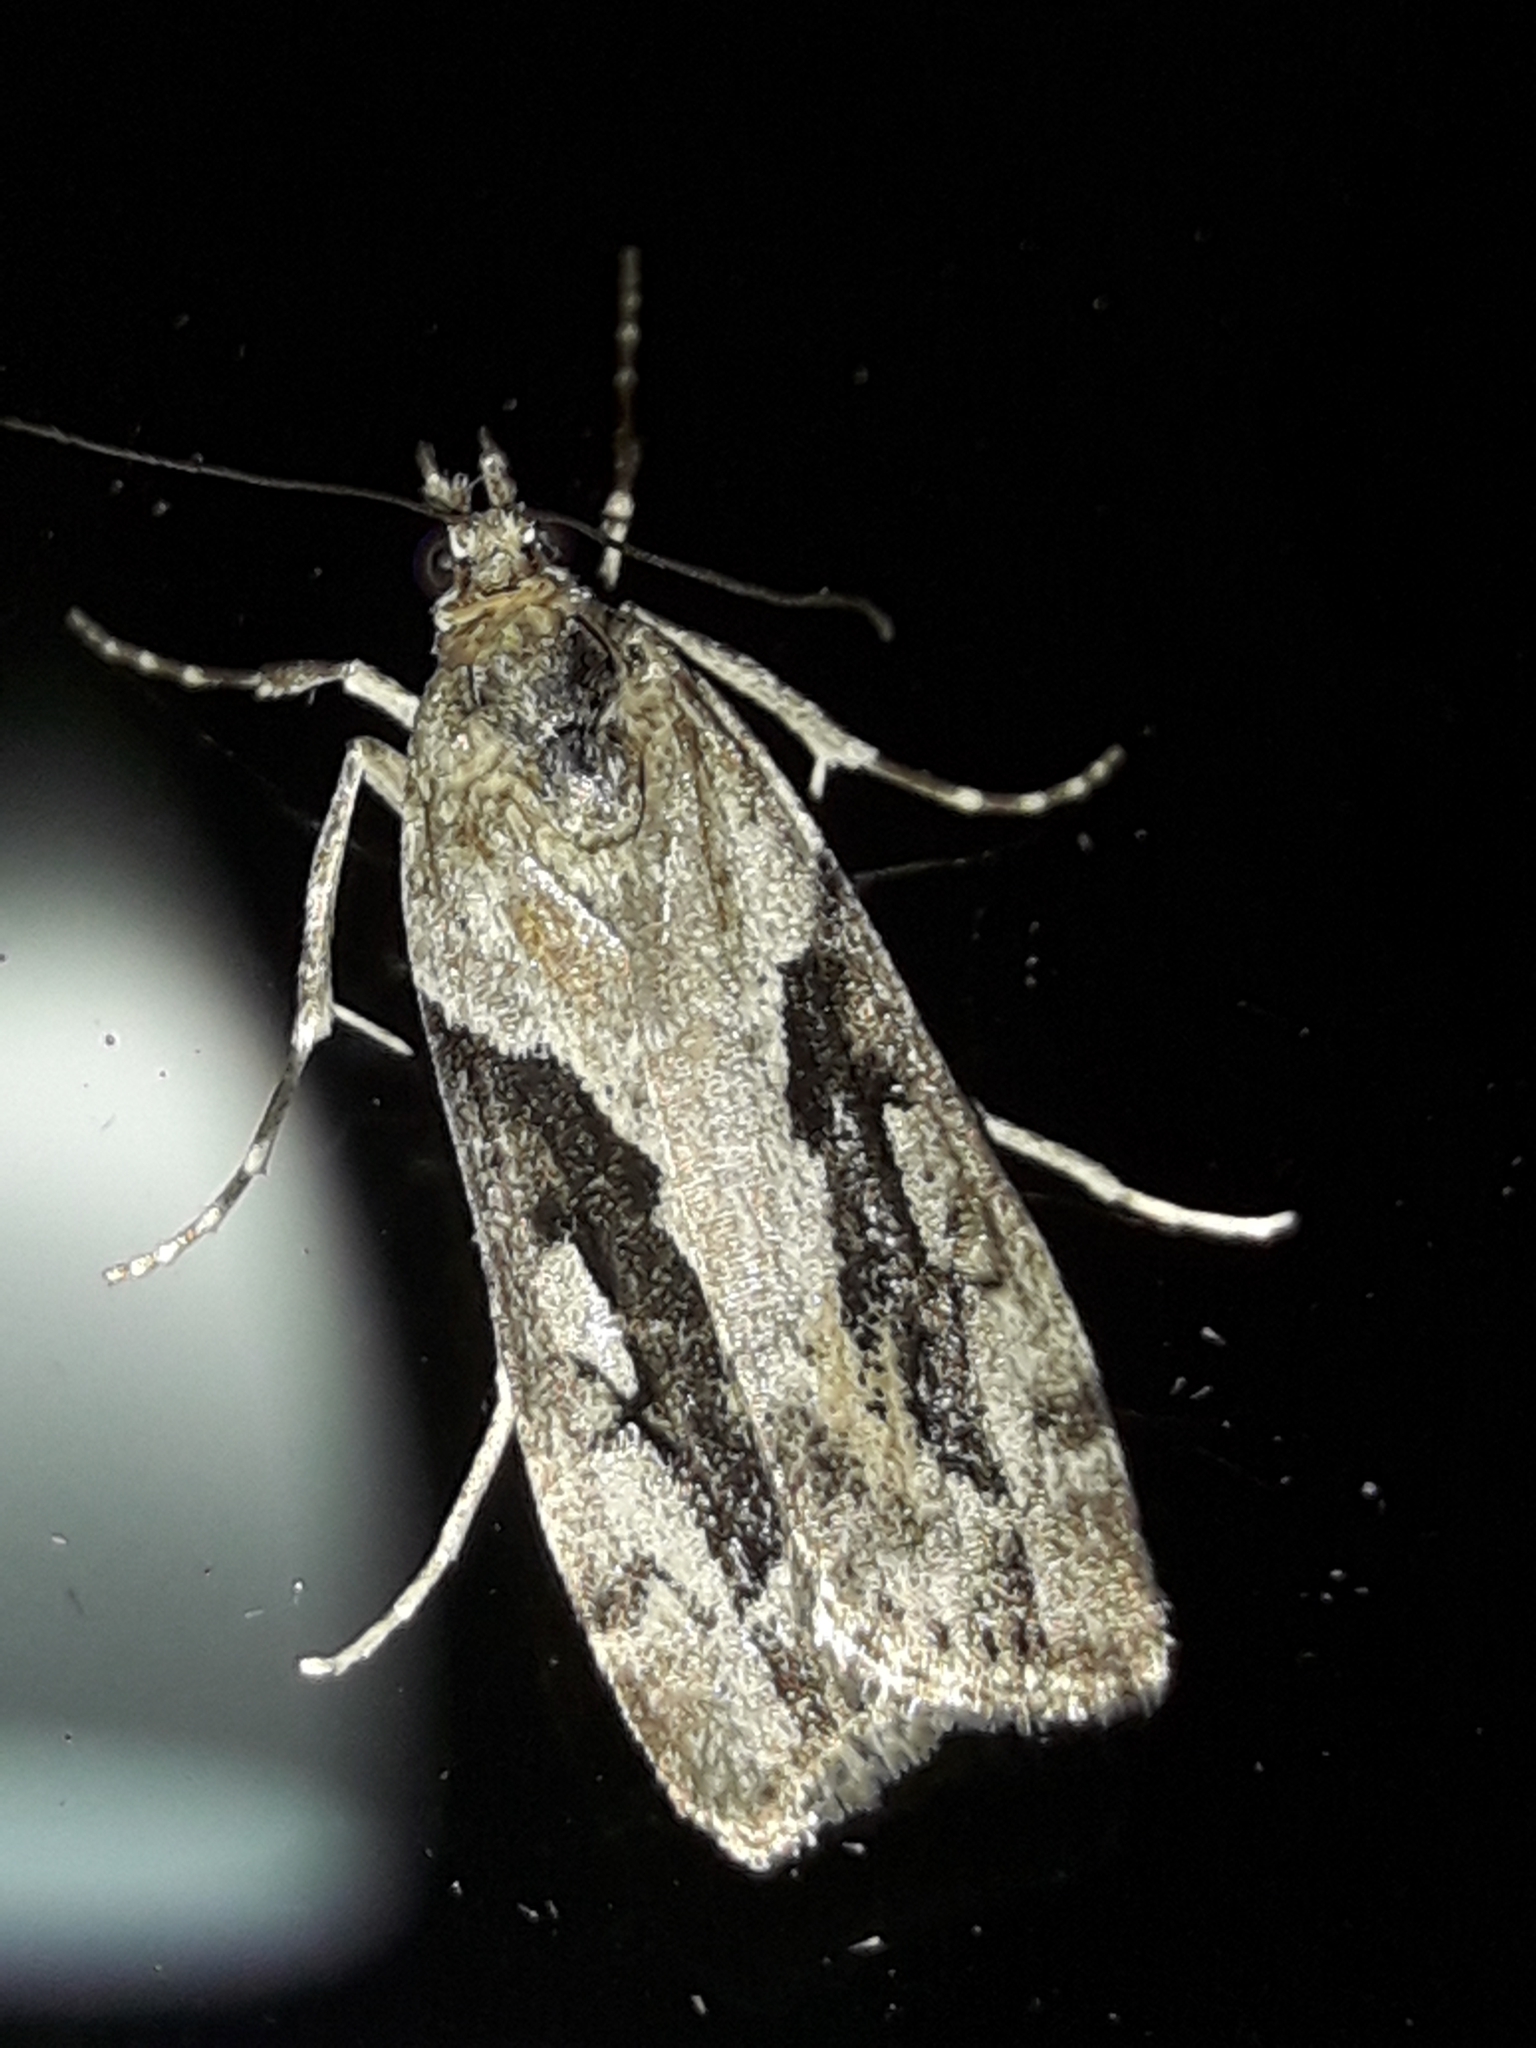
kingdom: Animalia
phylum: Arthropoda
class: Insecta
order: Lepidoptera
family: Crambidae
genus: Eudonia
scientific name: Eudonia submarginalis
